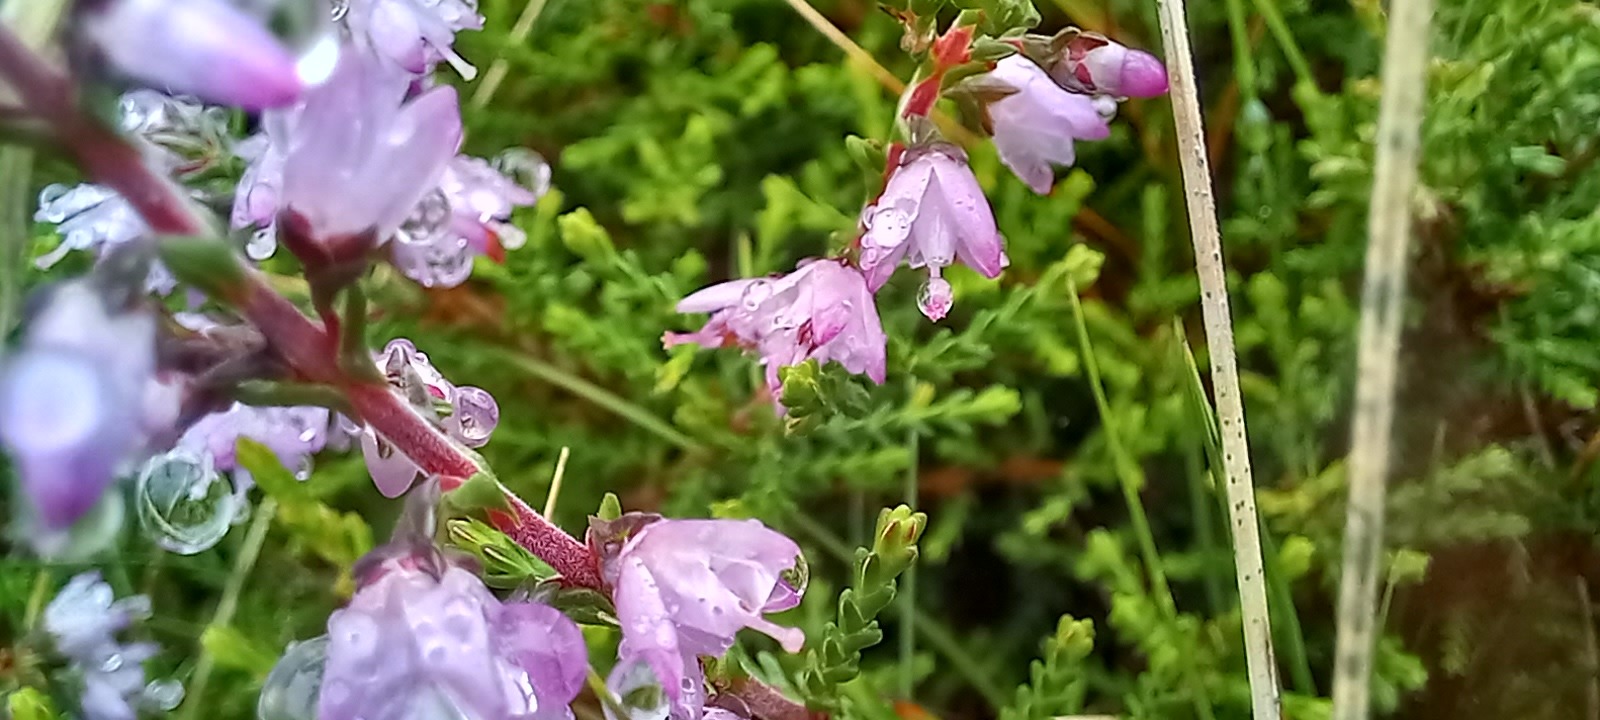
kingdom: Plantae
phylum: Tracheophyta
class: Magnoliopsida
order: Ericales
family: Ericaceae
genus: Calluna
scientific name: Calluna vulgaris
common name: Heather
